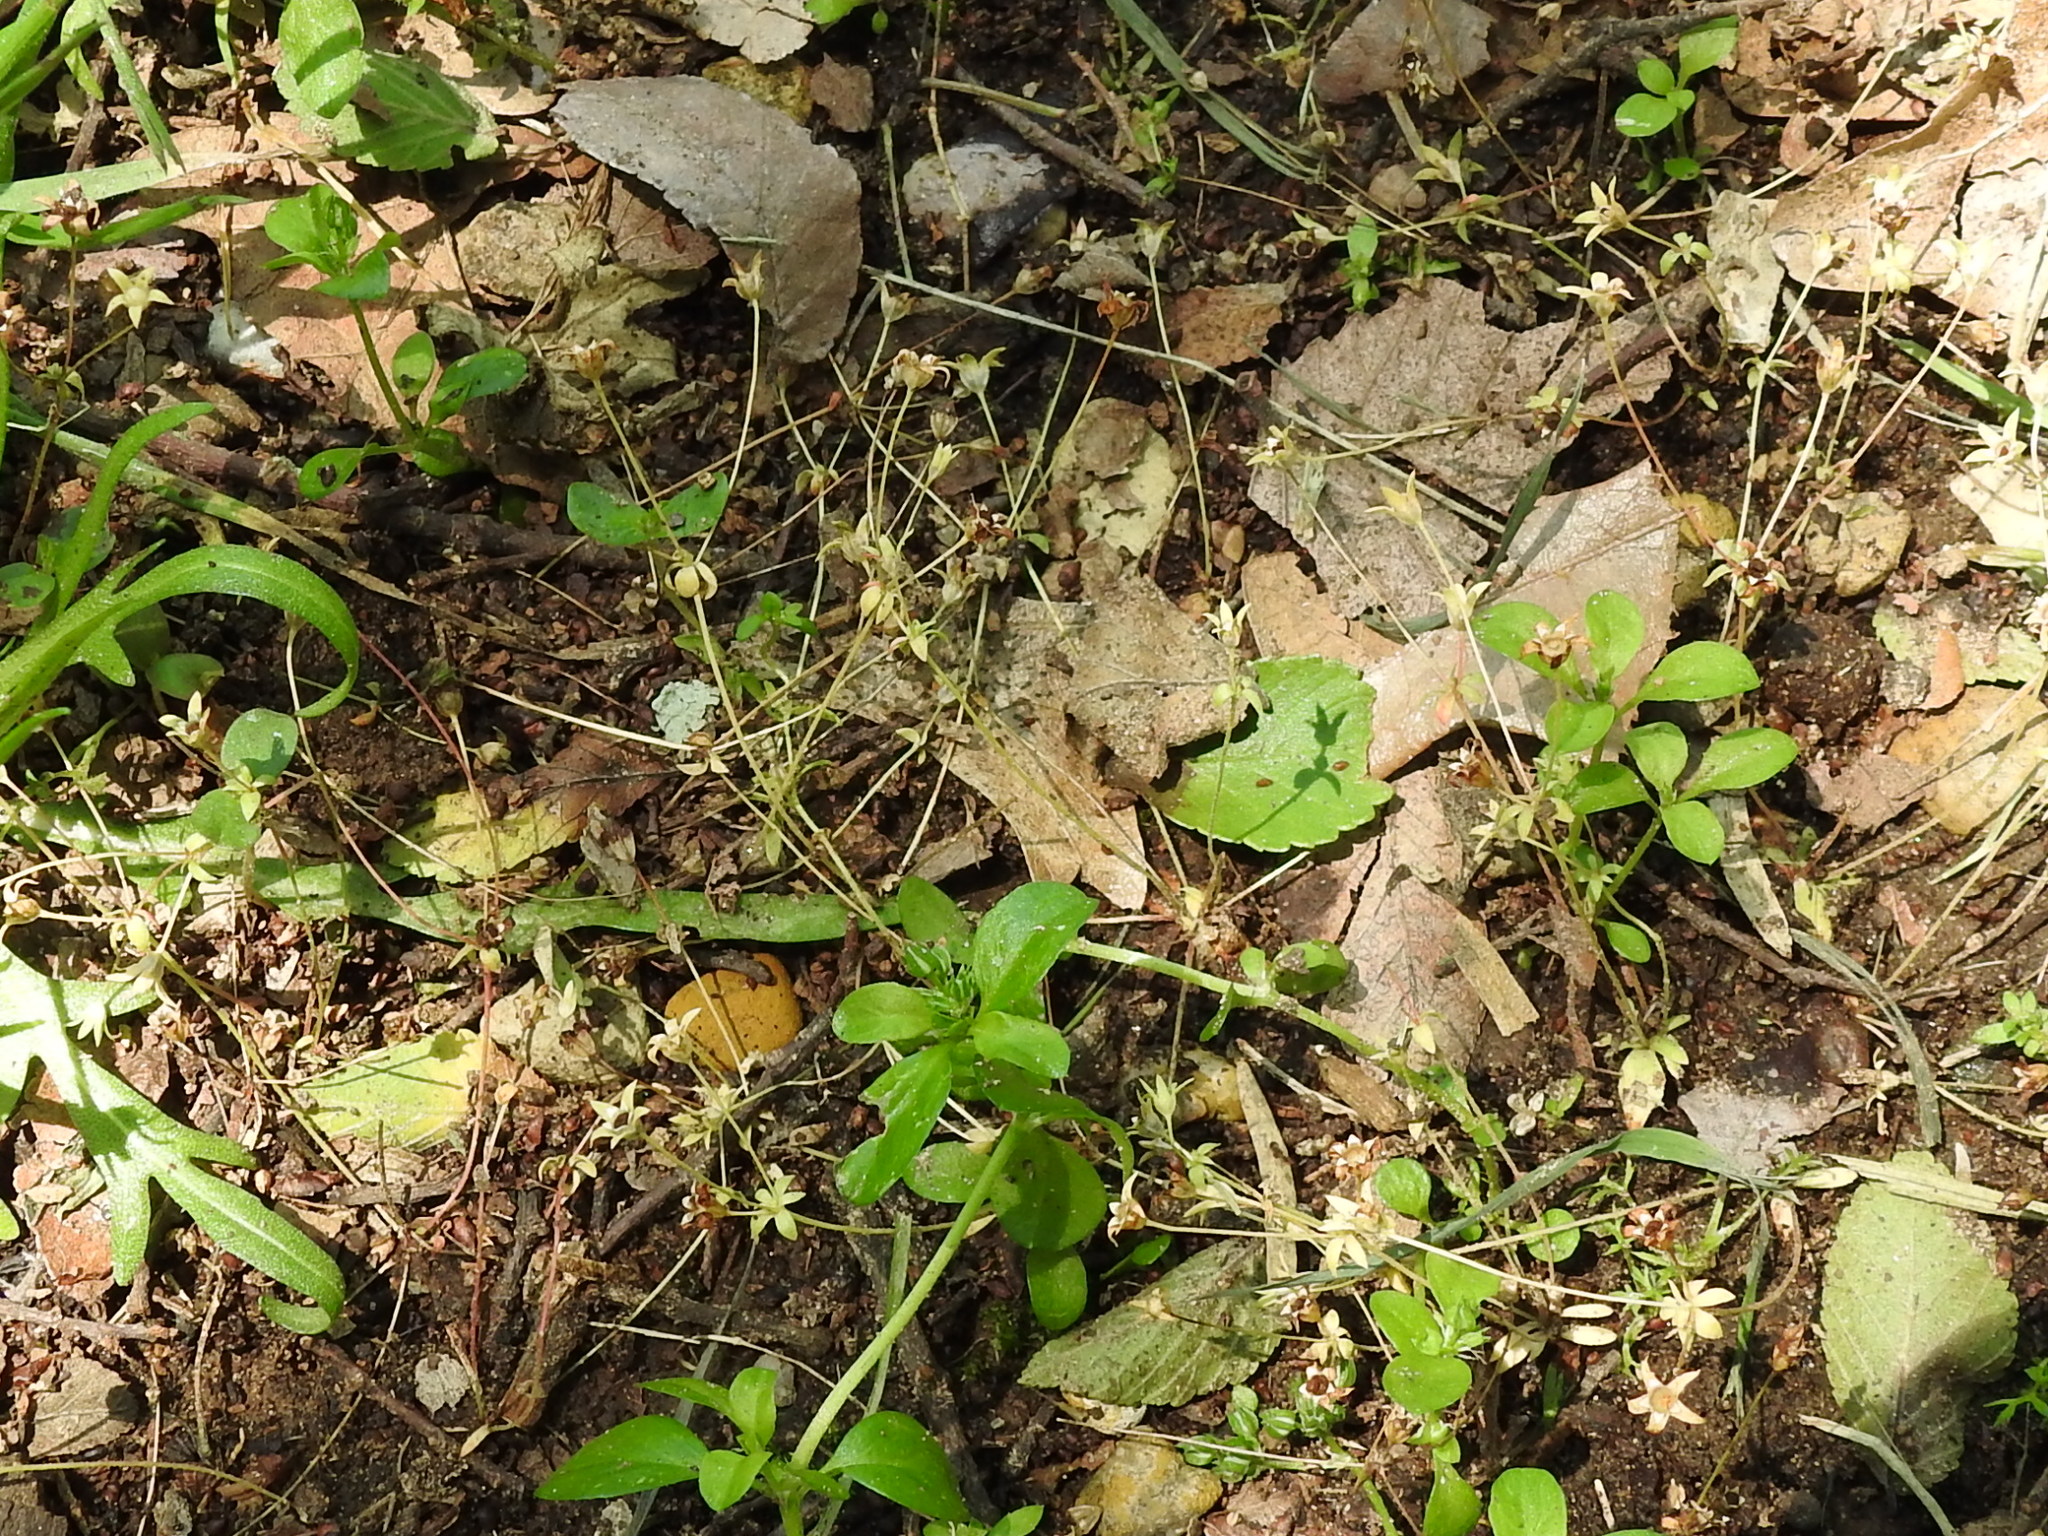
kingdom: Plantae
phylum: Tracheophyta
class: Magnoliopsida
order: Ericales
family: Primulaceae
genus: Androsace
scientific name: Androsace occidentalis
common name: West rock-jasmine
